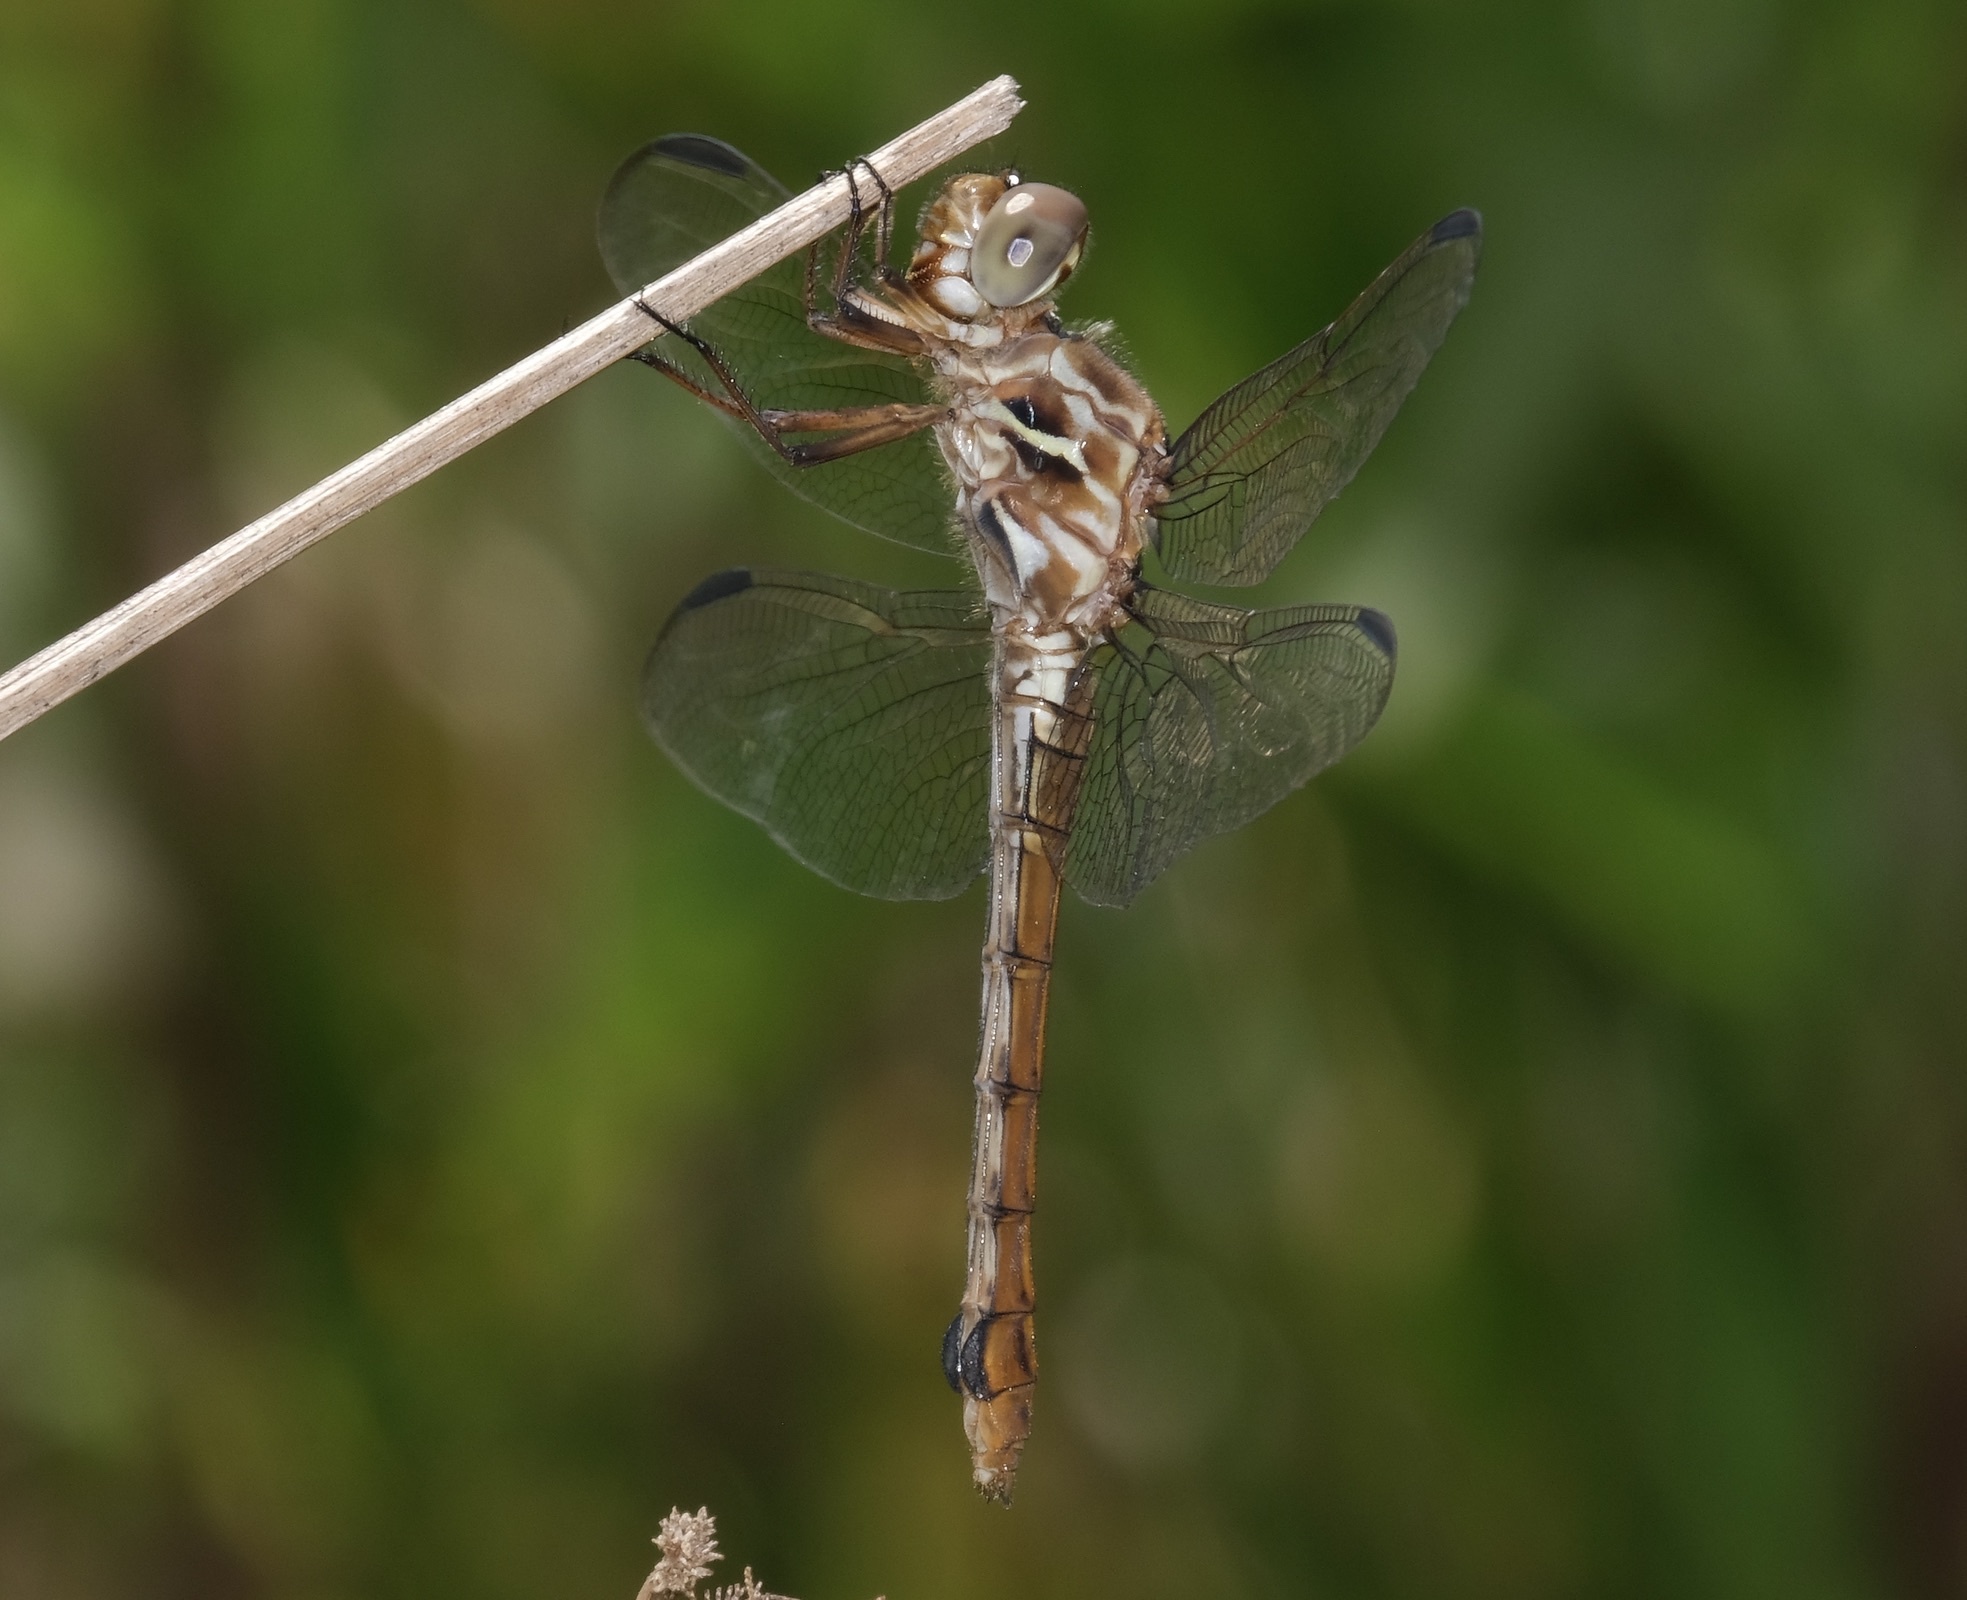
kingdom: Animalia
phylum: Arthropoda
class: Insecta
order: Odonata
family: Libellulidae
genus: Orthemis
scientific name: Orthemis ferruginea
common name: Roseate skimmer
